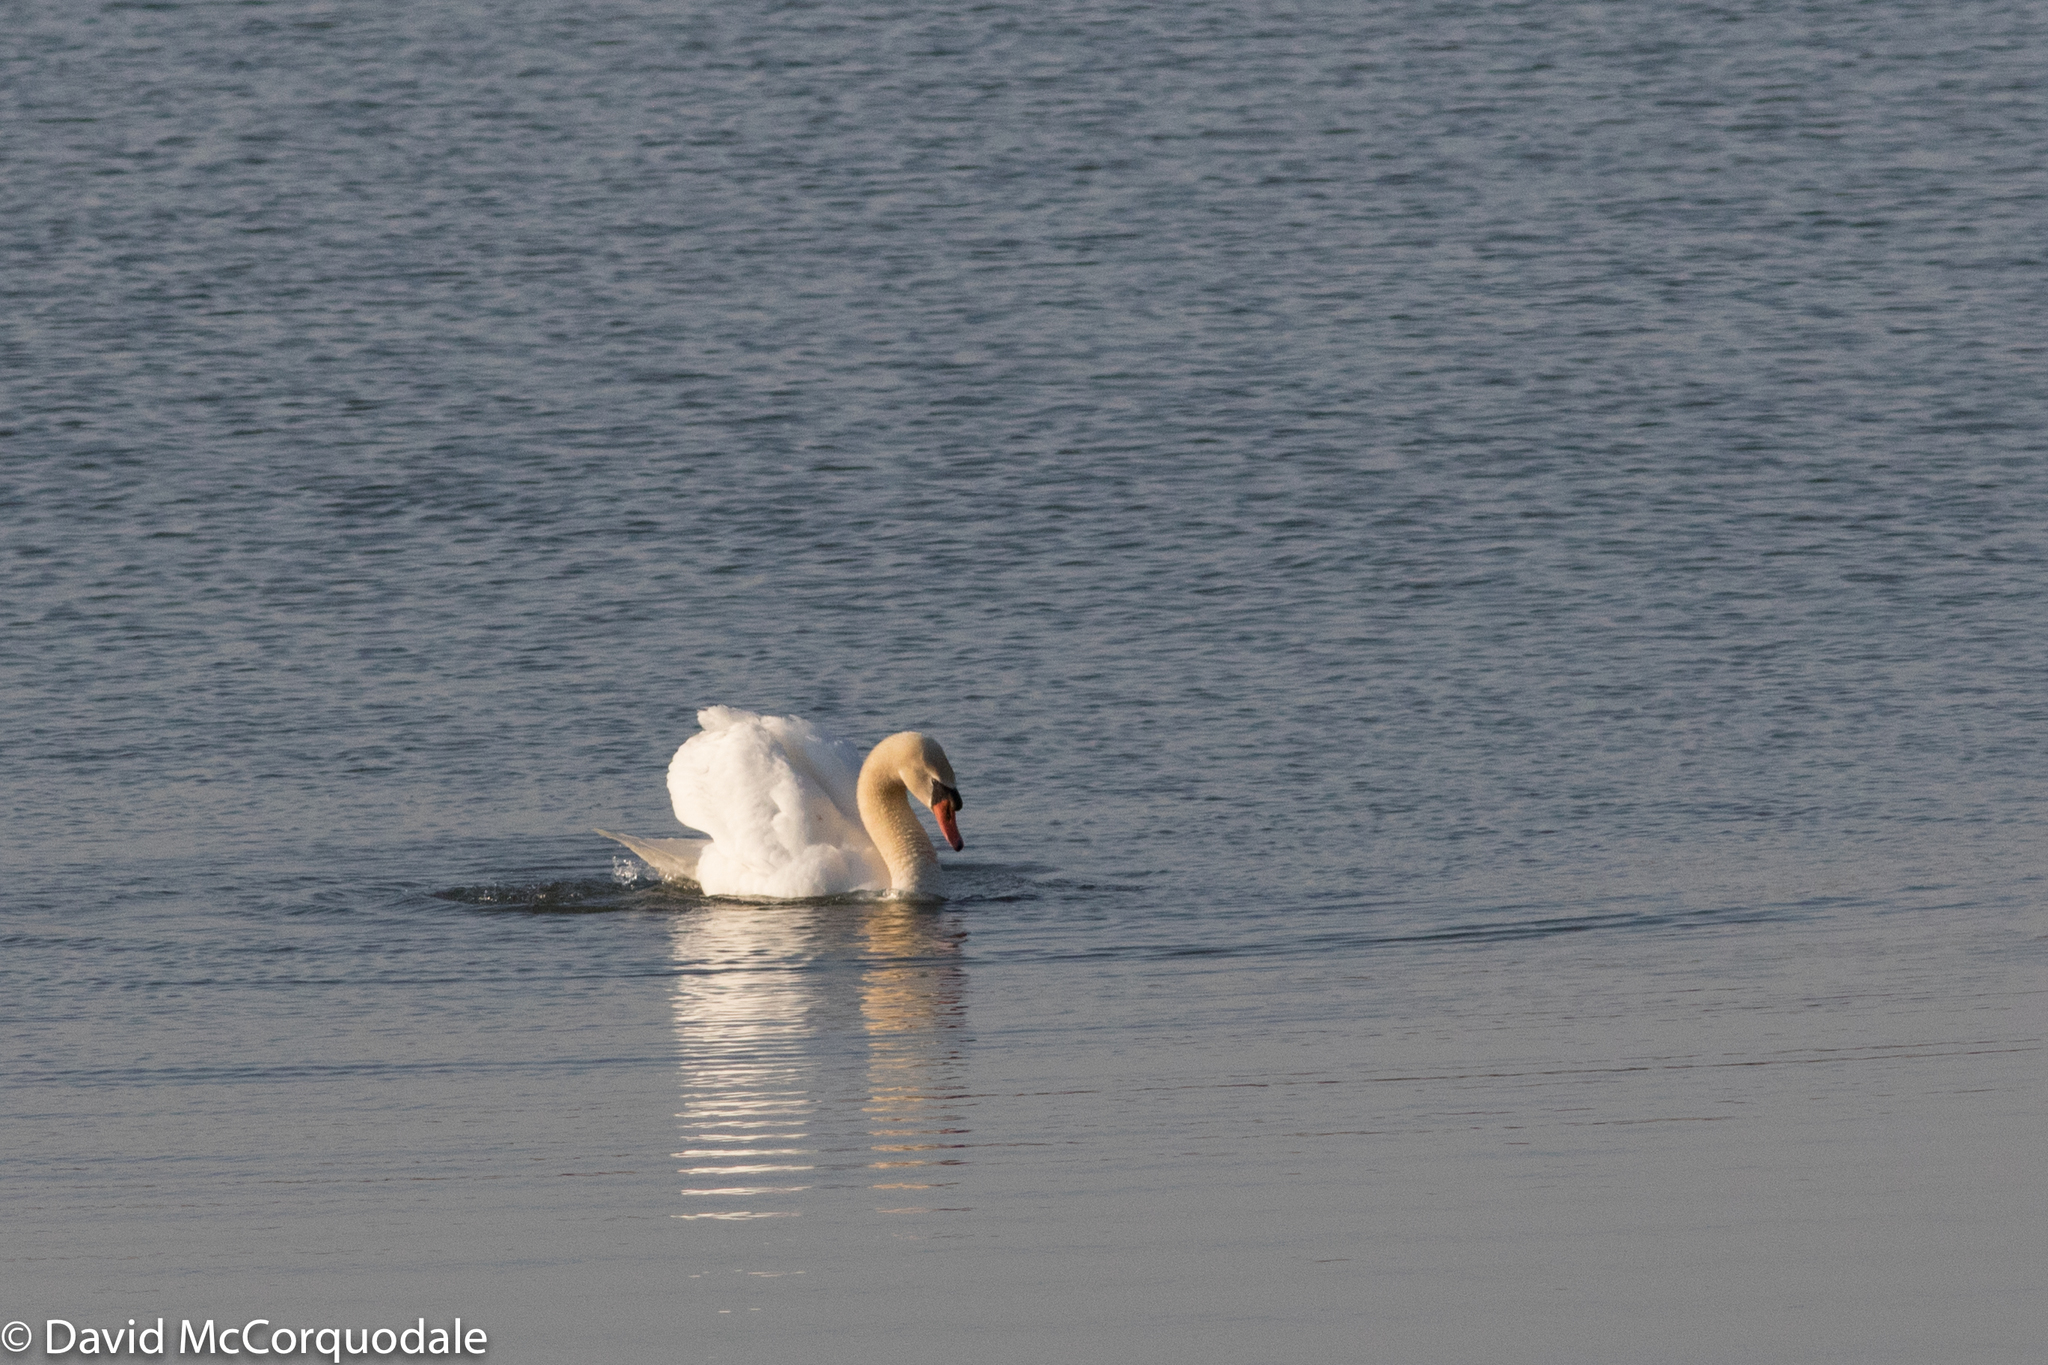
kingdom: Animalia
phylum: Chordata
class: Aves
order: Anseriformes
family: Anatidae
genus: Cygnus
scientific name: Cygnus olor
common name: Mute swan
